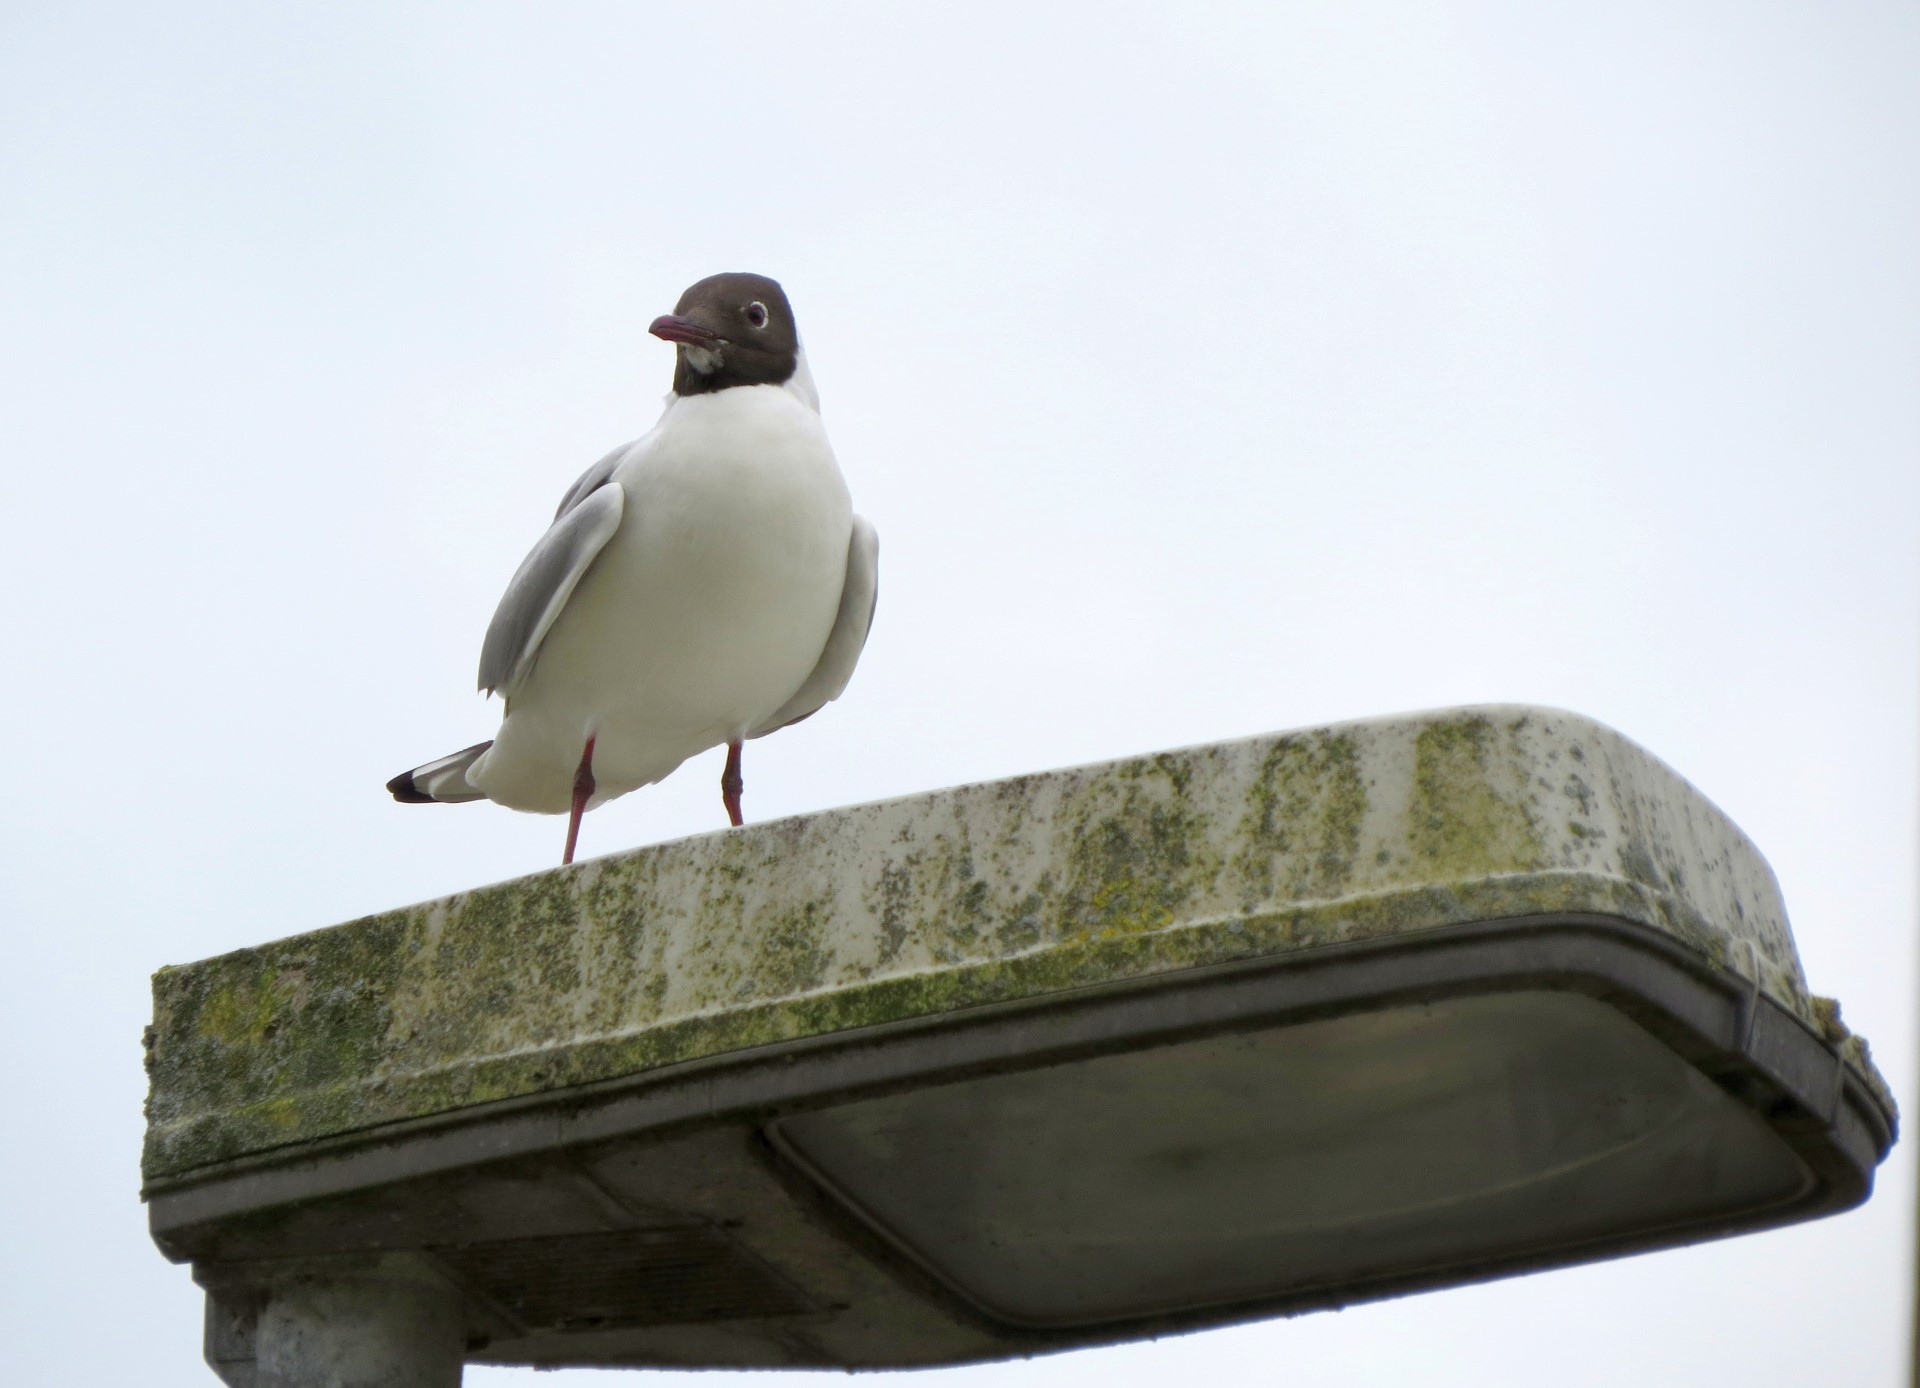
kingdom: Animalia
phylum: Chordata
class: Aves
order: Charadriiformes
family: Laridae
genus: Chroicocephalus
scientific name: Chroicocephalus ridibundus
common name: Black-headed gull
